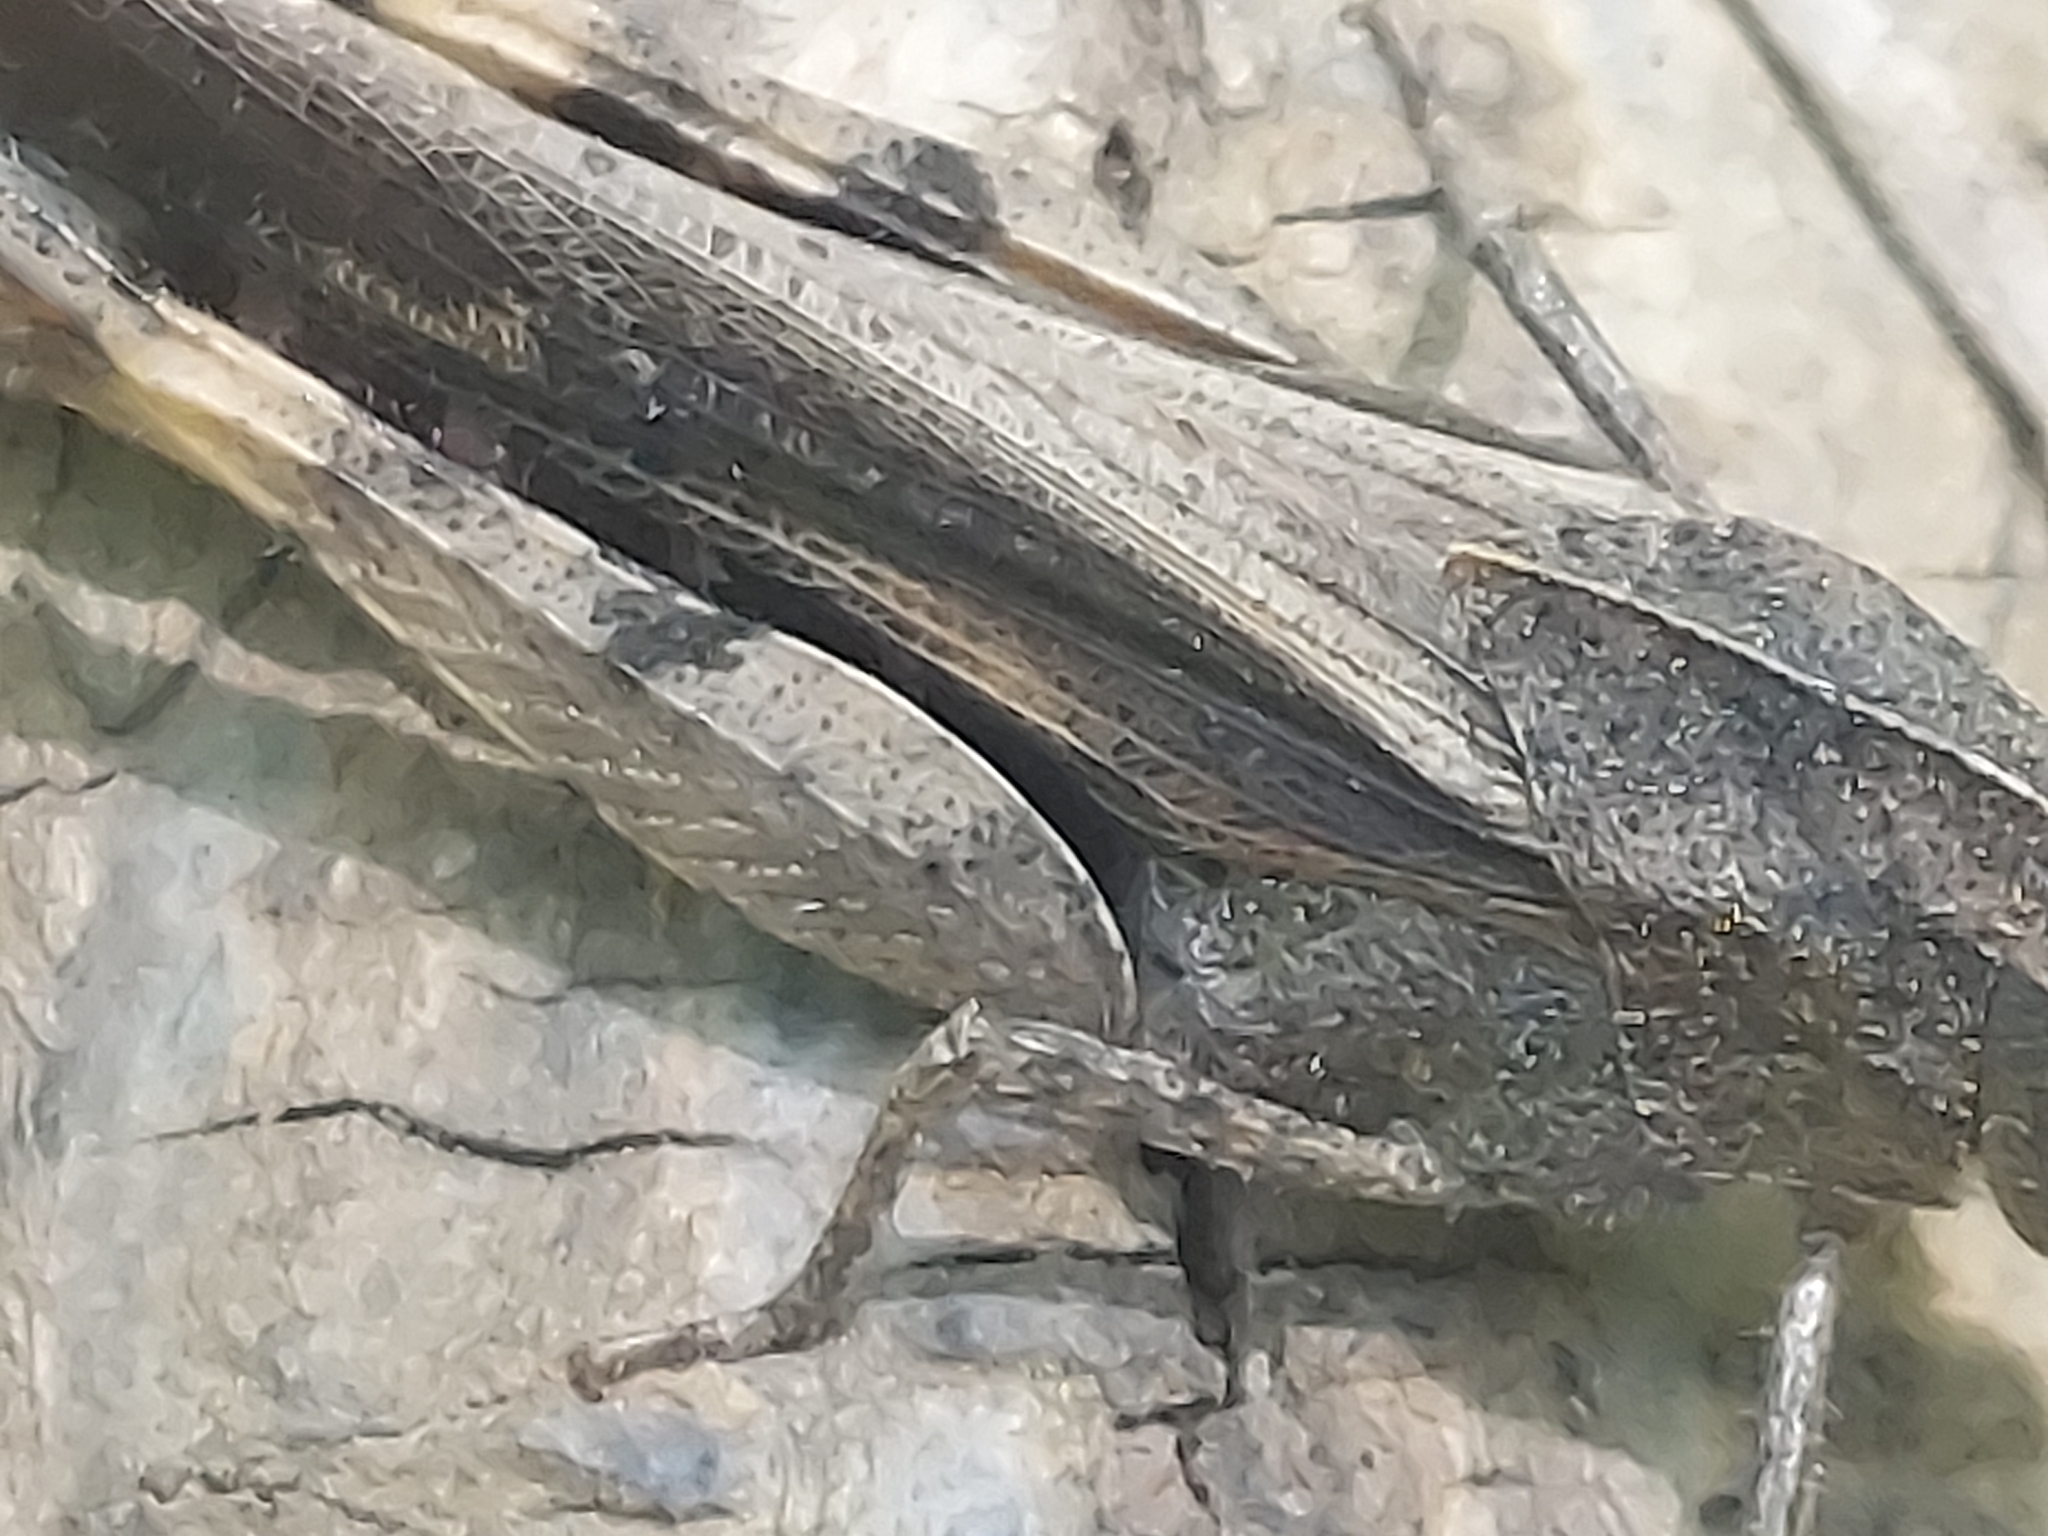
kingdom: Animalia
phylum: Arthropoda
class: Insecta
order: Orthoptera
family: Acrididae
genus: Chortophaga
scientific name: Chortophaga viridifasciata
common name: Green-striped grasshopper
